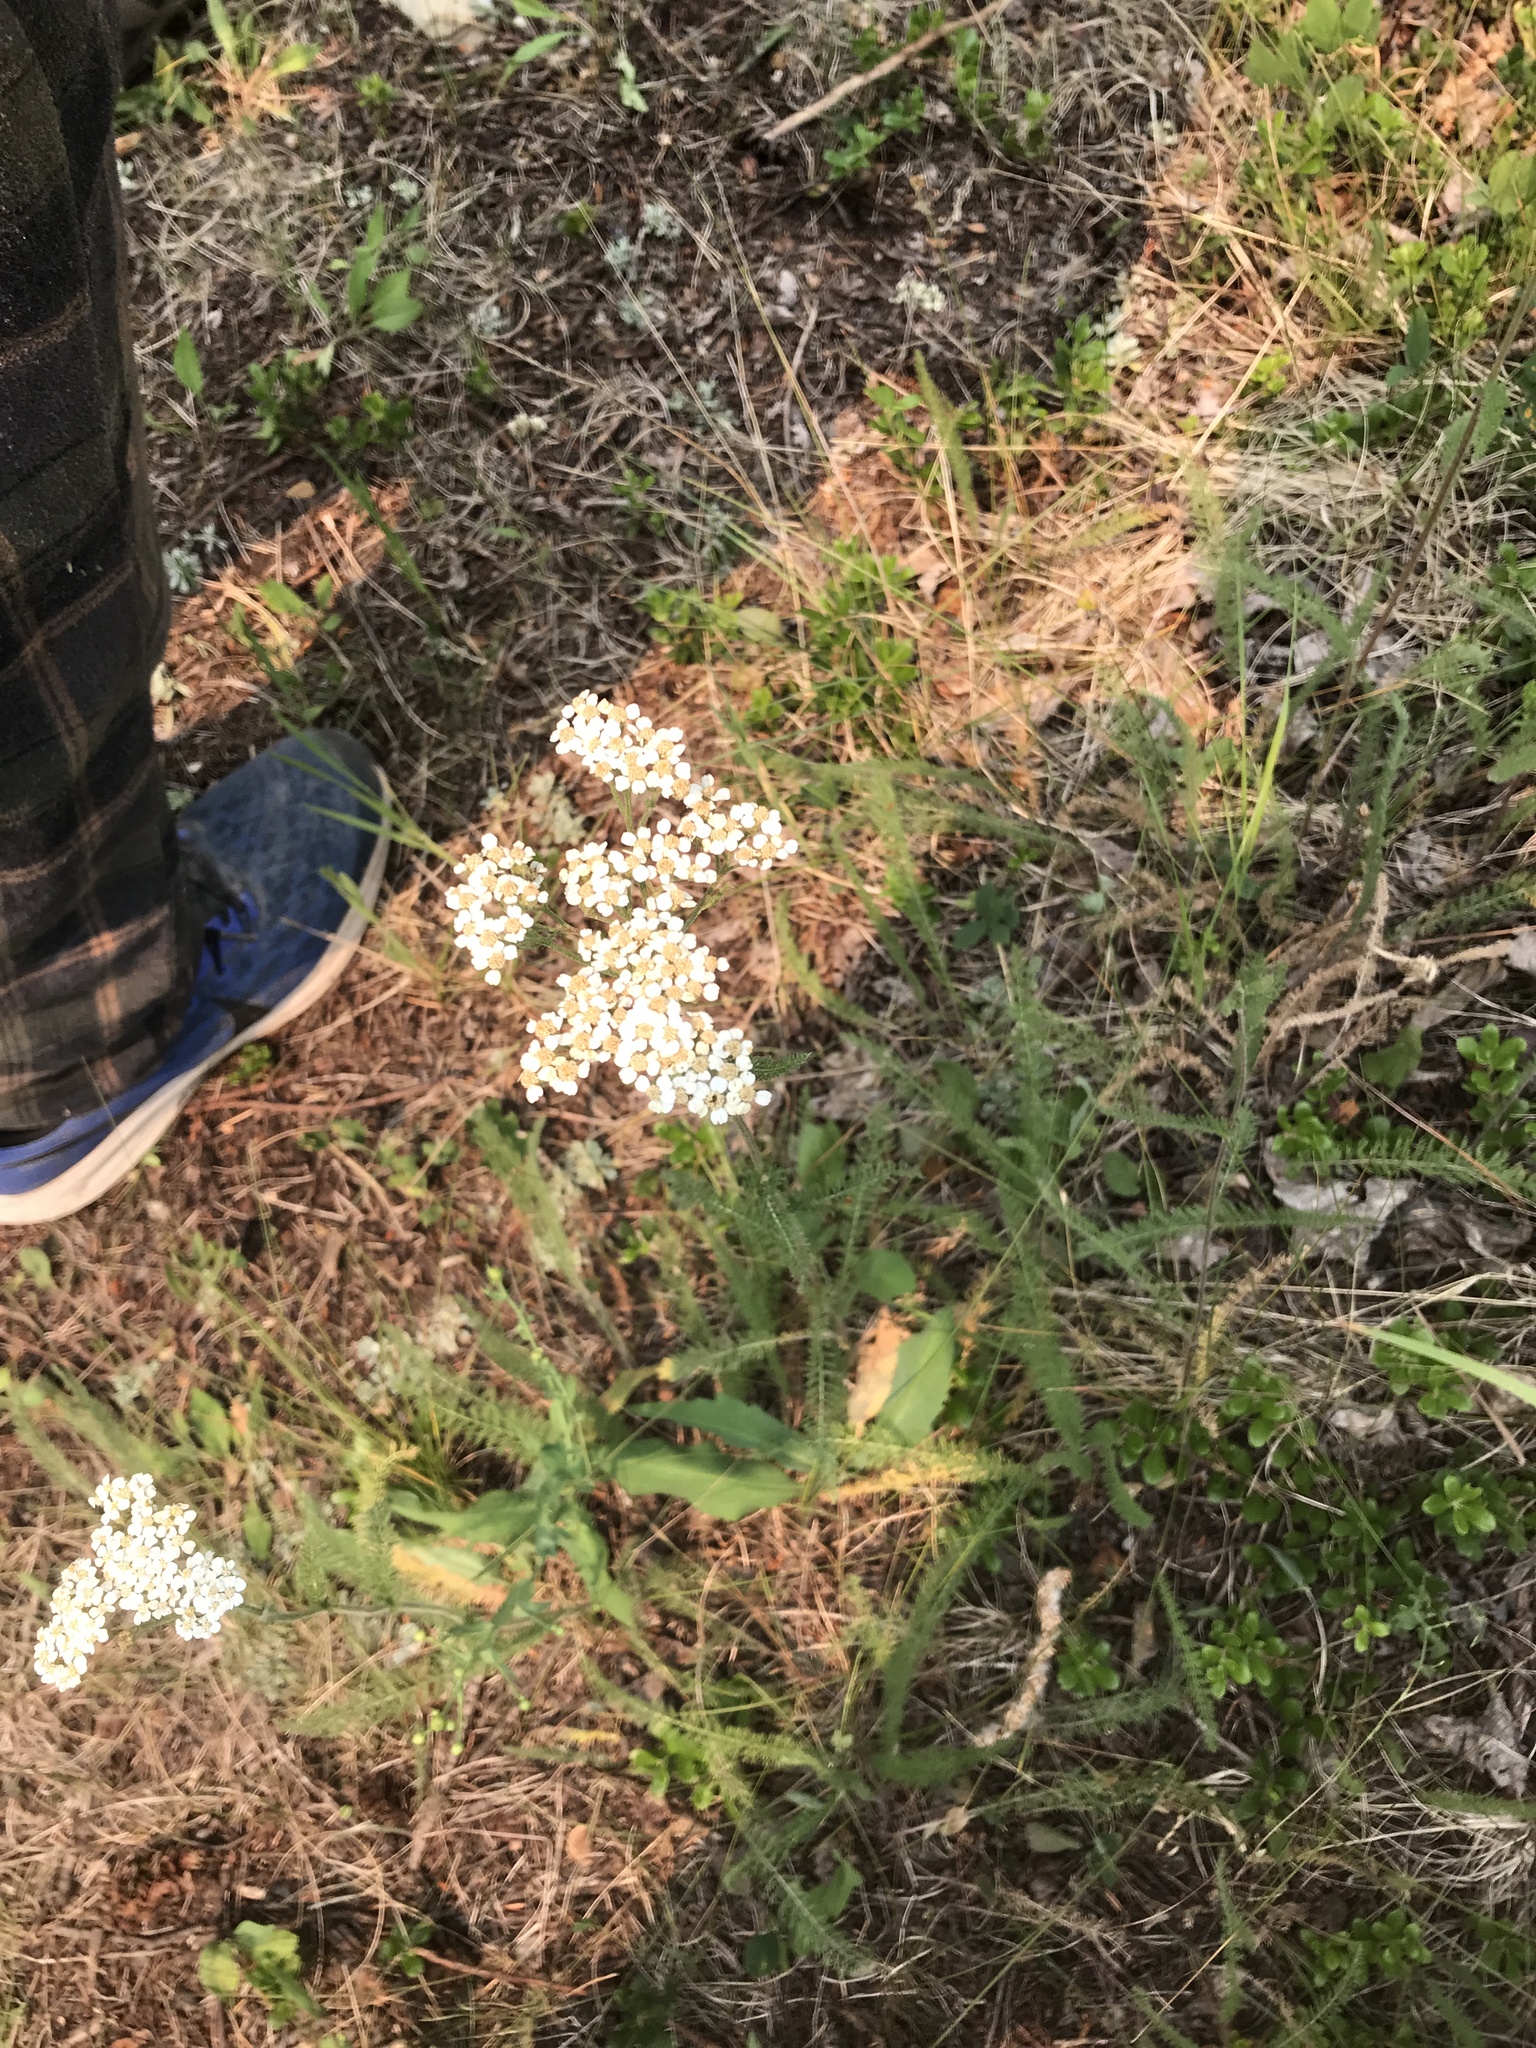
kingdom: Plantae
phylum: Tracheophyta
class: Magnoliopsida
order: Asterales
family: Asteraceae
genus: Achillea
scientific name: Achillea millefolium
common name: Yarrow
